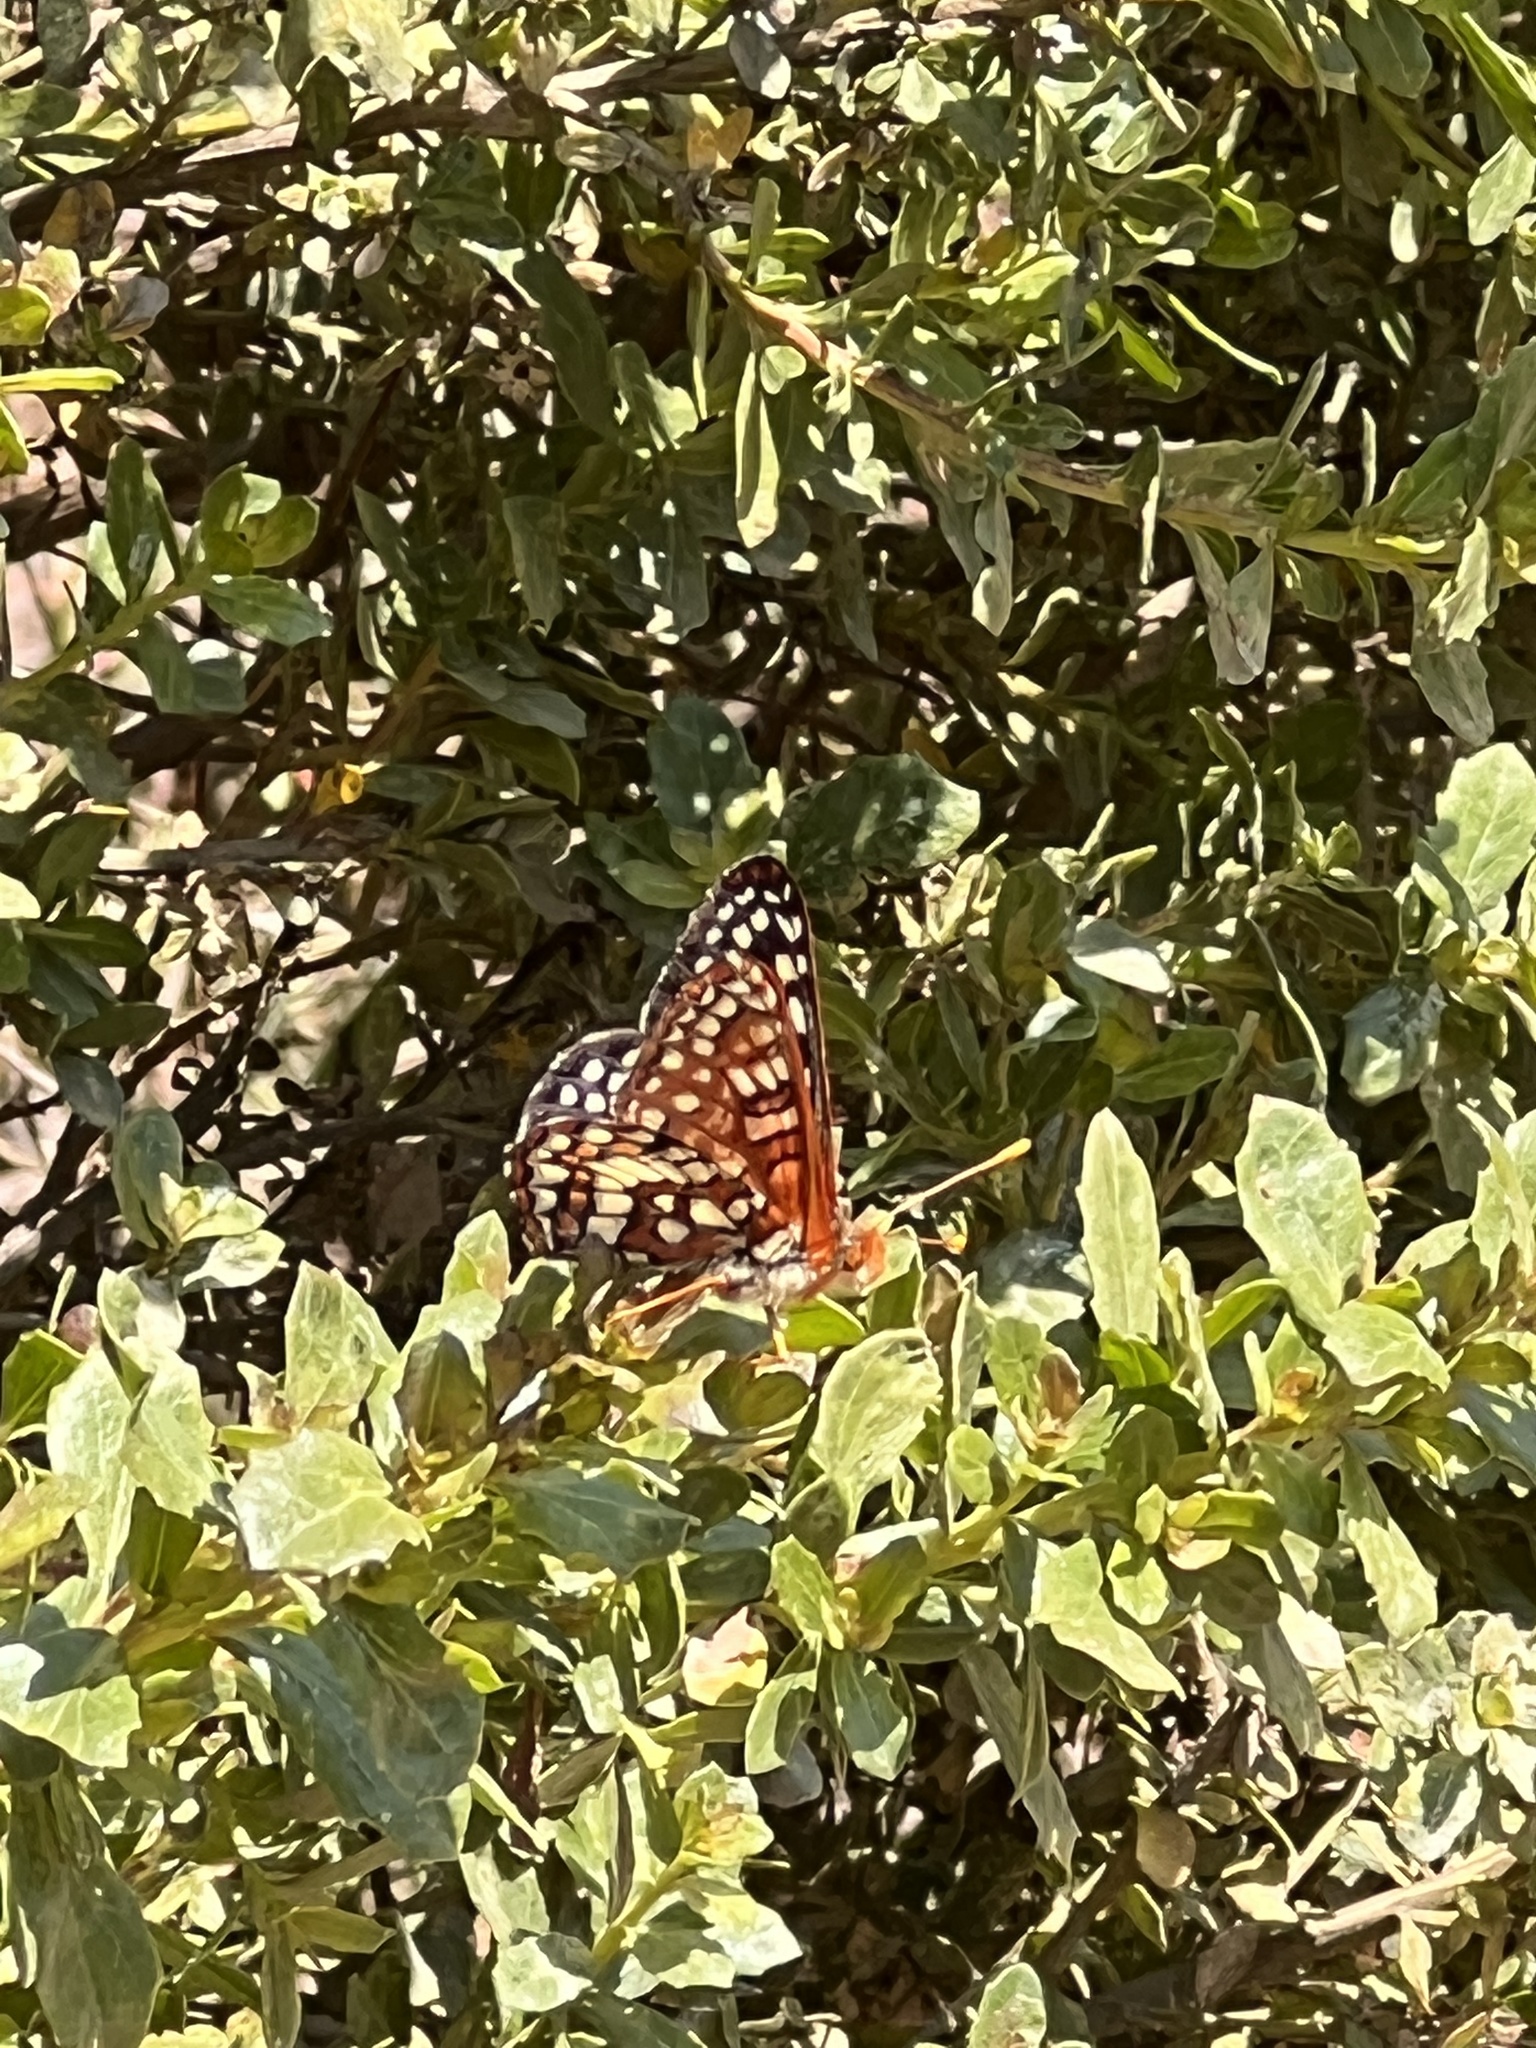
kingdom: Animalia
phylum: Arthropoda
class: Insecta
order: Lepidoptera
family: Nymphalidae
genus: Occidryas
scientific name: Occidryas chalcedona
